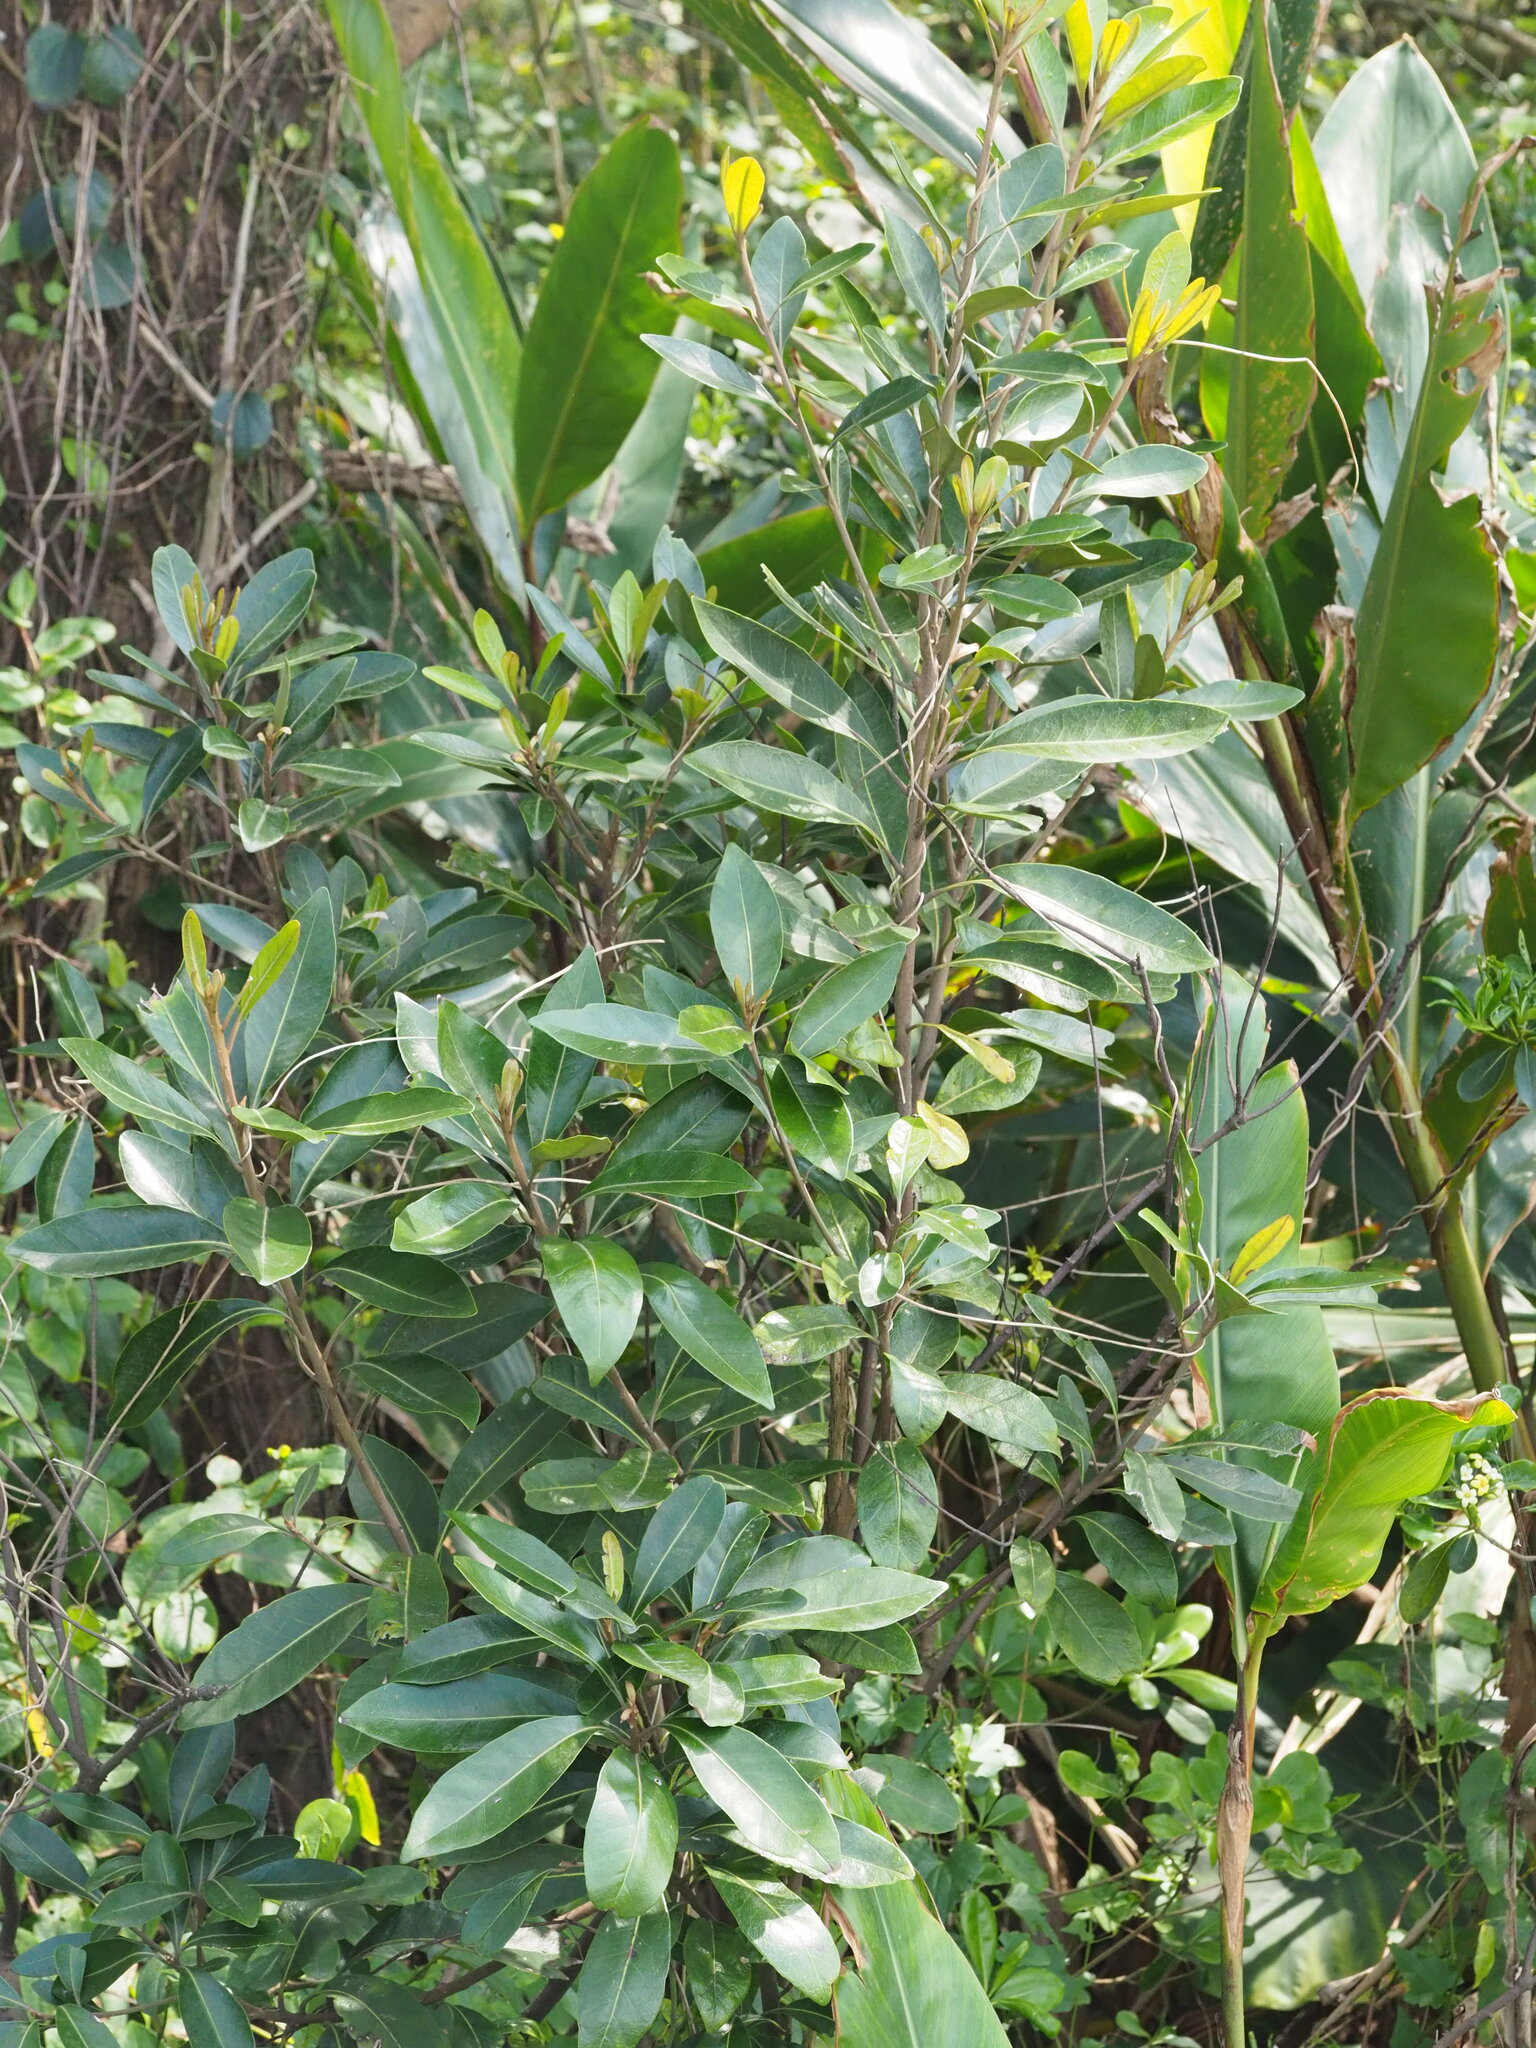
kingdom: Plantae
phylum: Tracheophyta
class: Magnoliopsida
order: Ericales
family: Sapotaceae
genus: Planchonella
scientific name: Planchonella obovata
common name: Black-ash
